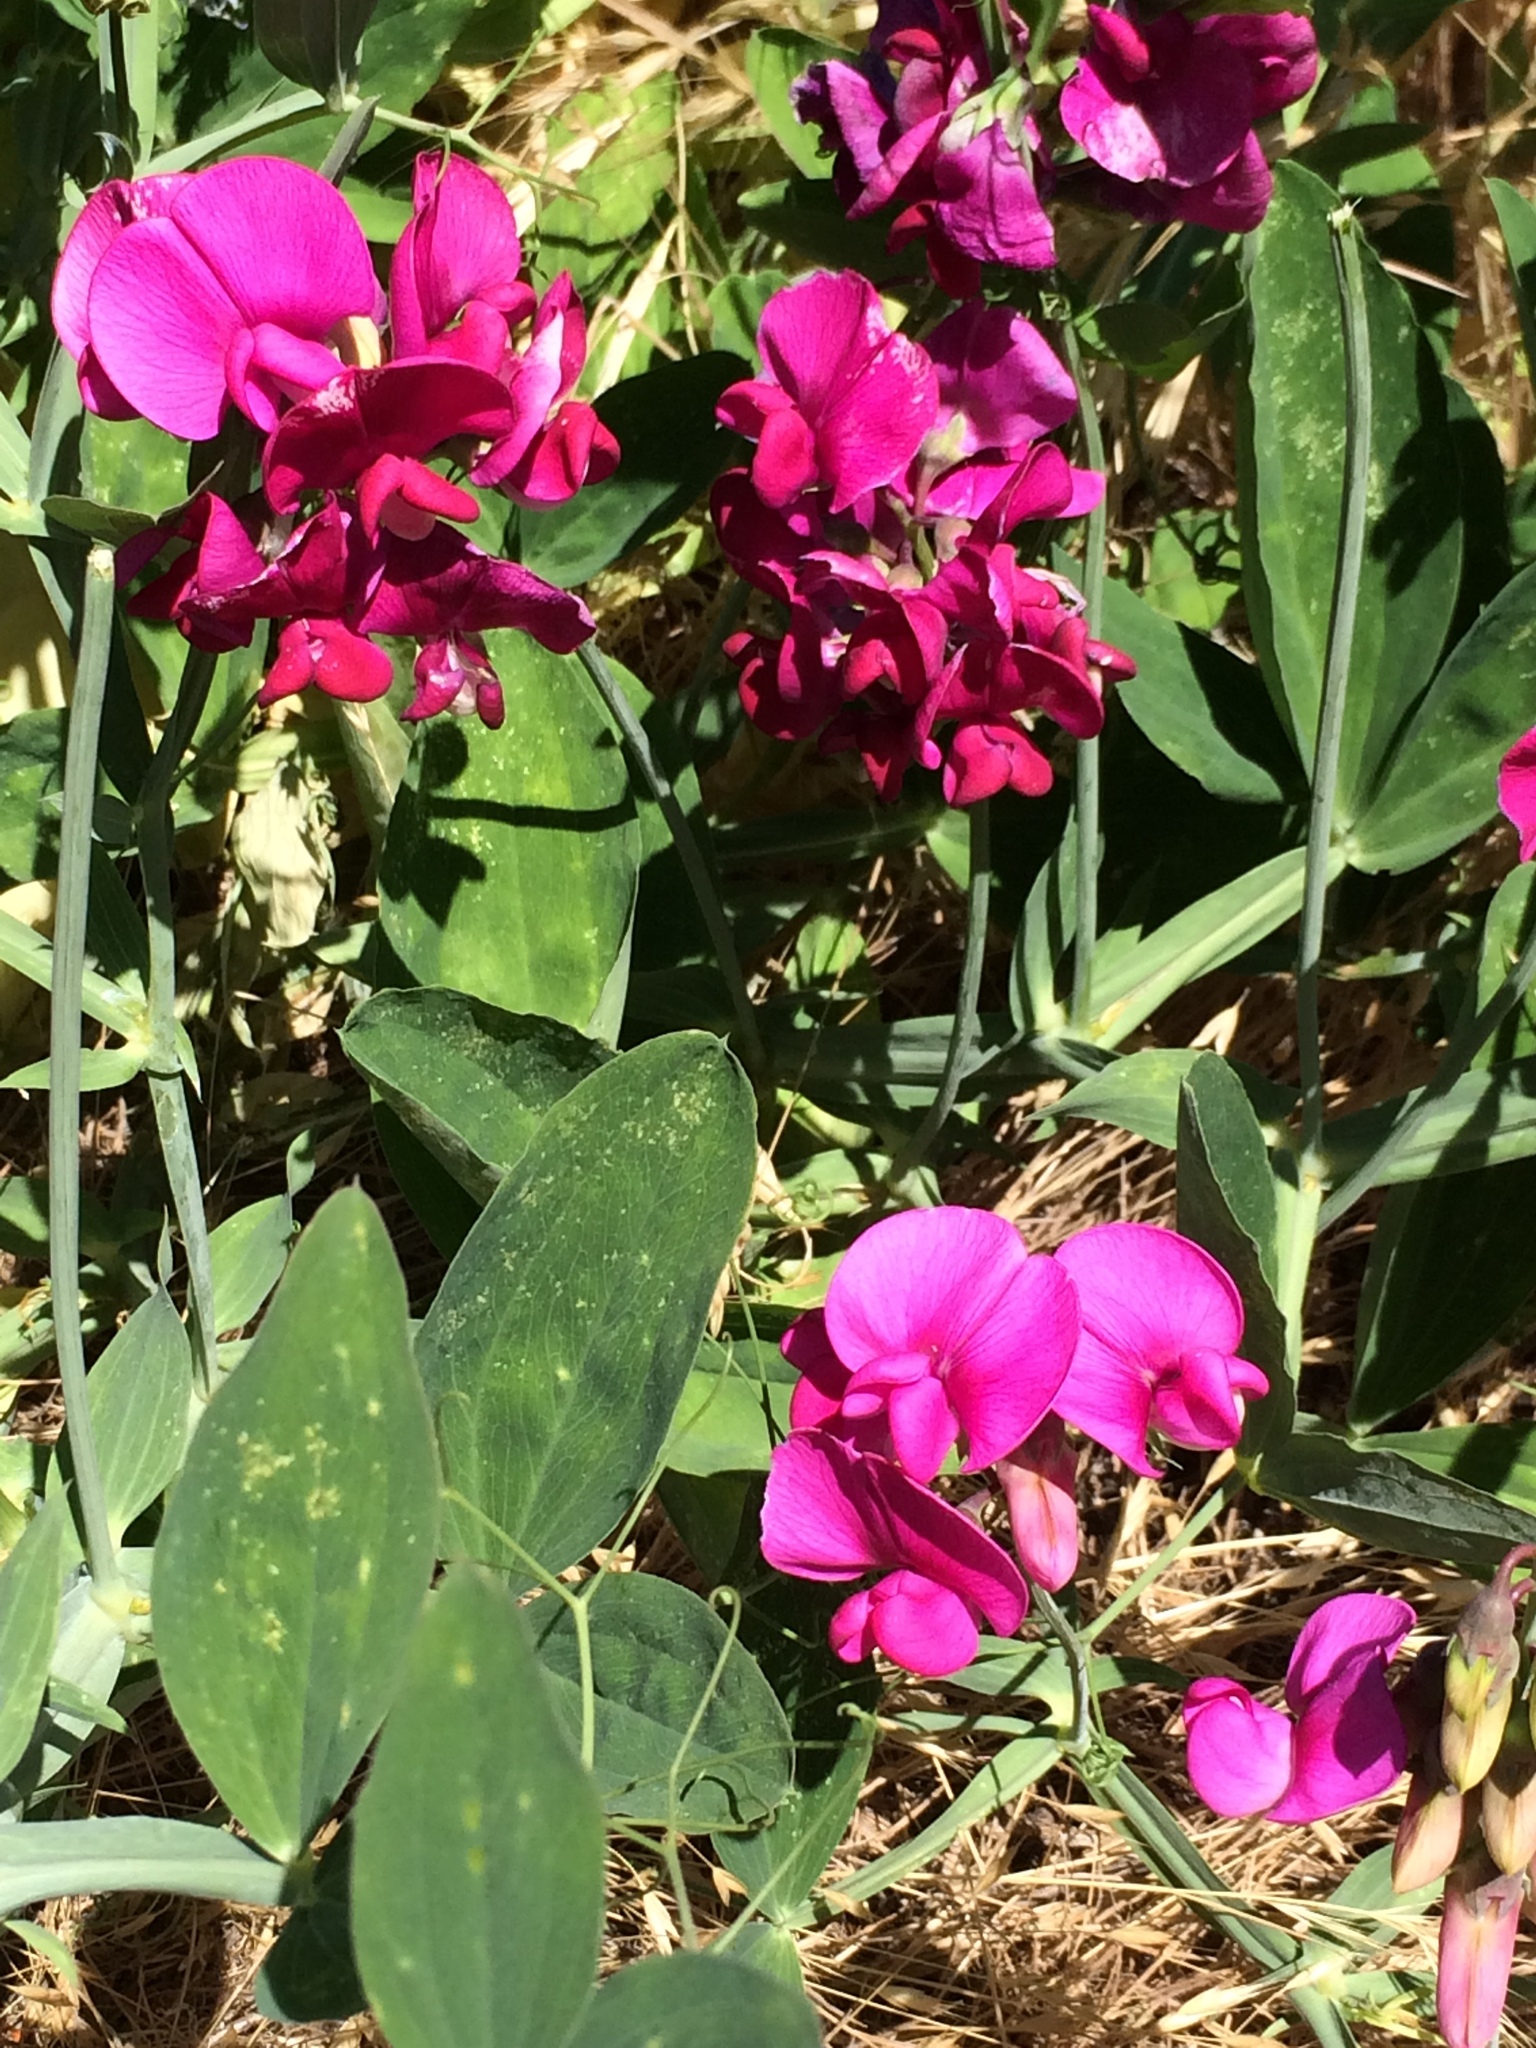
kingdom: Plantae
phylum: Tracheophyta
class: Magnoliopsida
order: Fabales
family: Fabaceae
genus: Lathyrus
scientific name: Lathyrus latifolius
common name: Perennial pea
